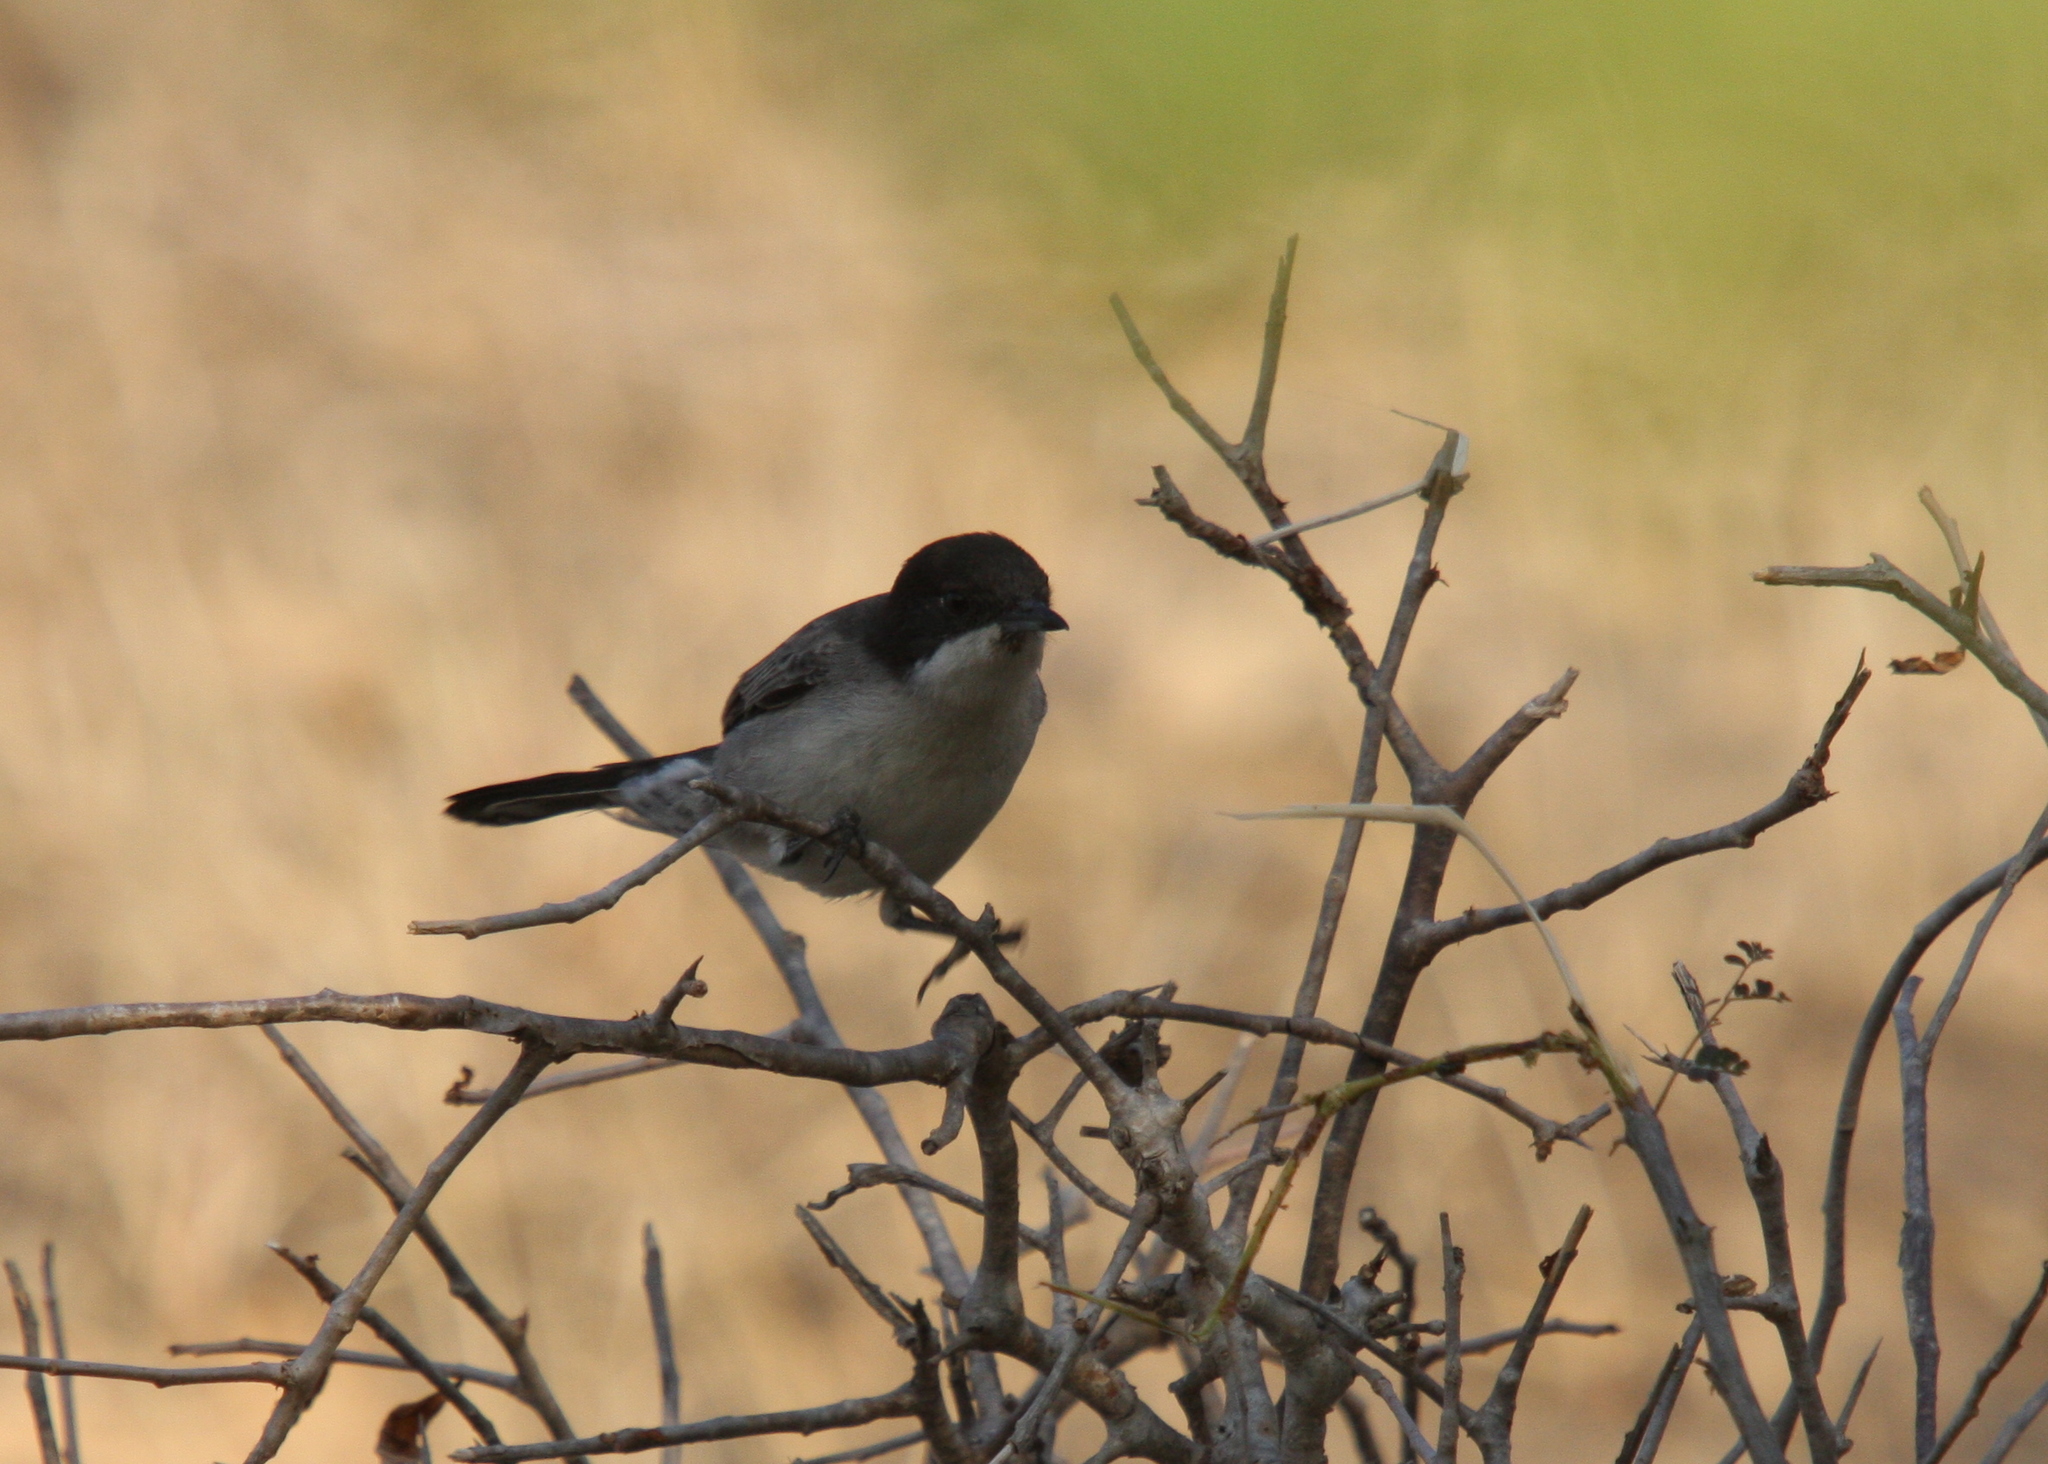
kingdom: Animalia
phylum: Chordata
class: Aves
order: Passeriformes
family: Sylviidae
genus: Sylvia
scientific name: Sylvia leucomelaena
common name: Arabian warbler
